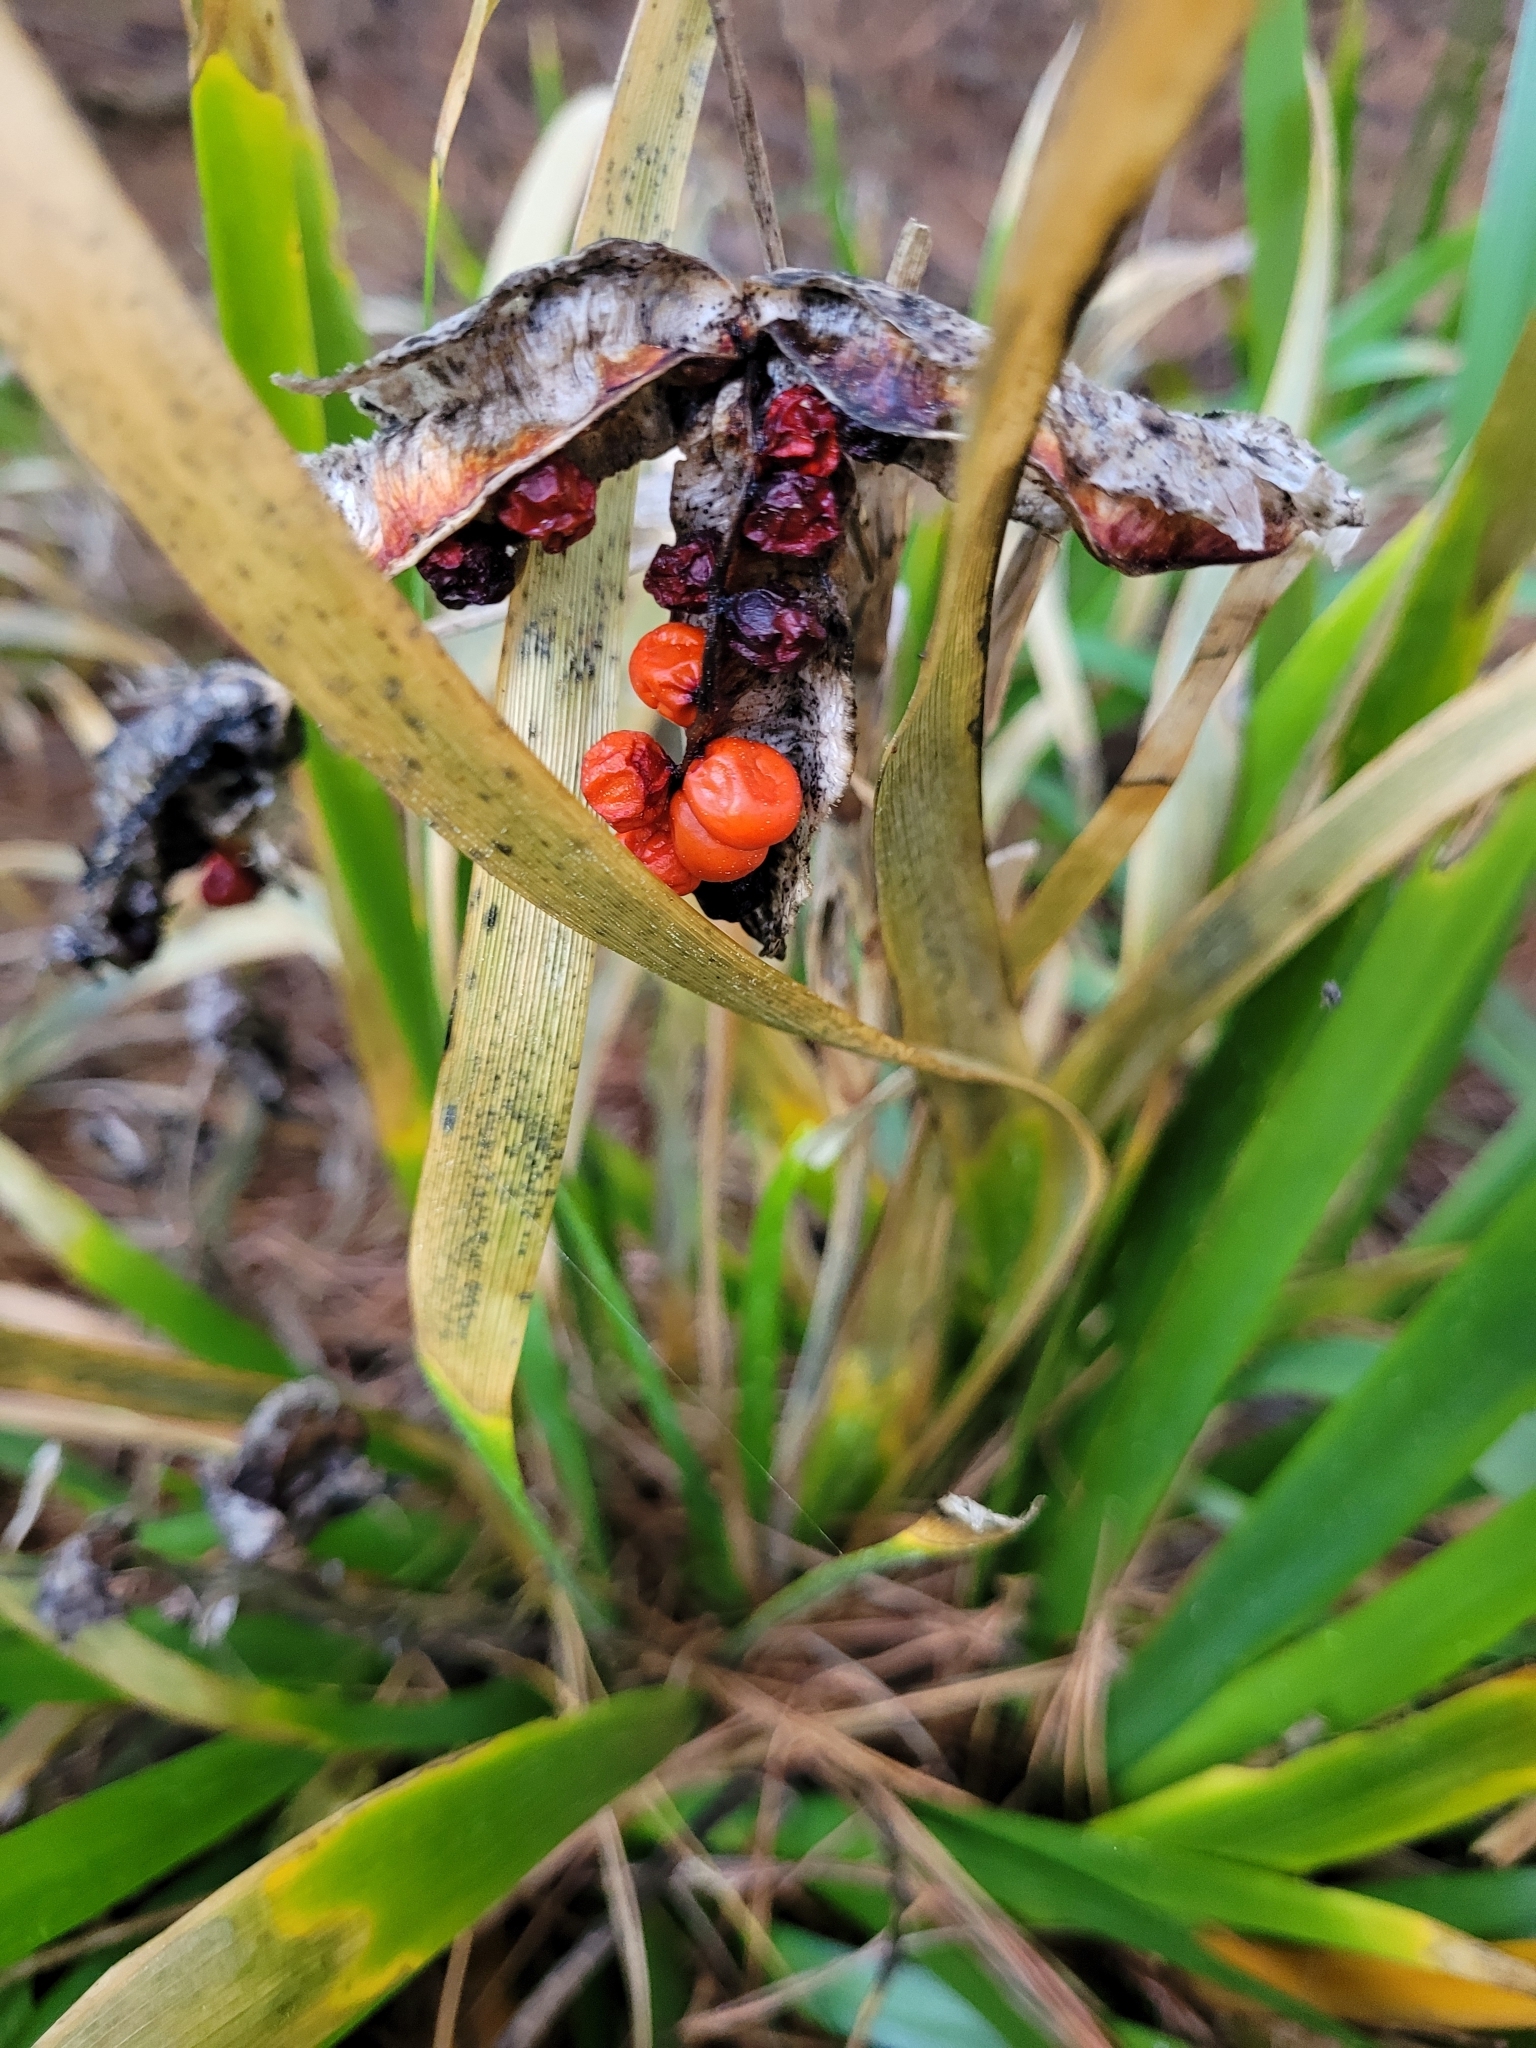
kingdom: Plantae
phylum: Tracheophyta
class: Liliopsida
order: Asparagales
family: Iridaceae
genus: Iris
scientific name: Iris foetidissima
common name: Stinking iris
